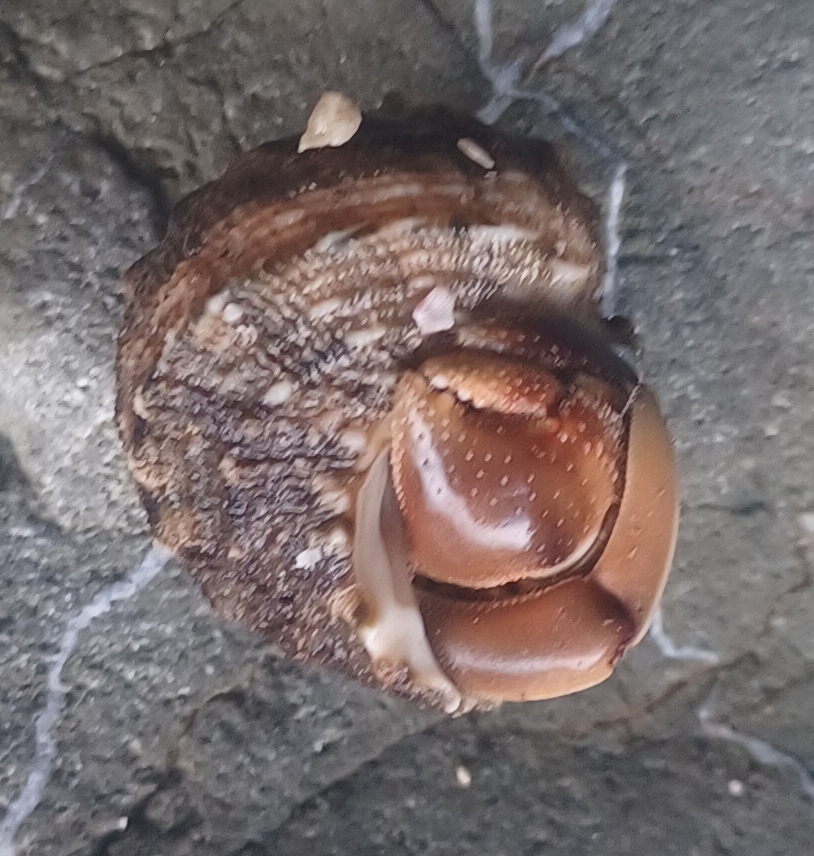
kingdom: Animalia
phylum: Arthropoda
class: Malacostraca
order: Decapoda
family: Coenobitidae
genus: Coenobita
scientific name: Coenobita compressus
